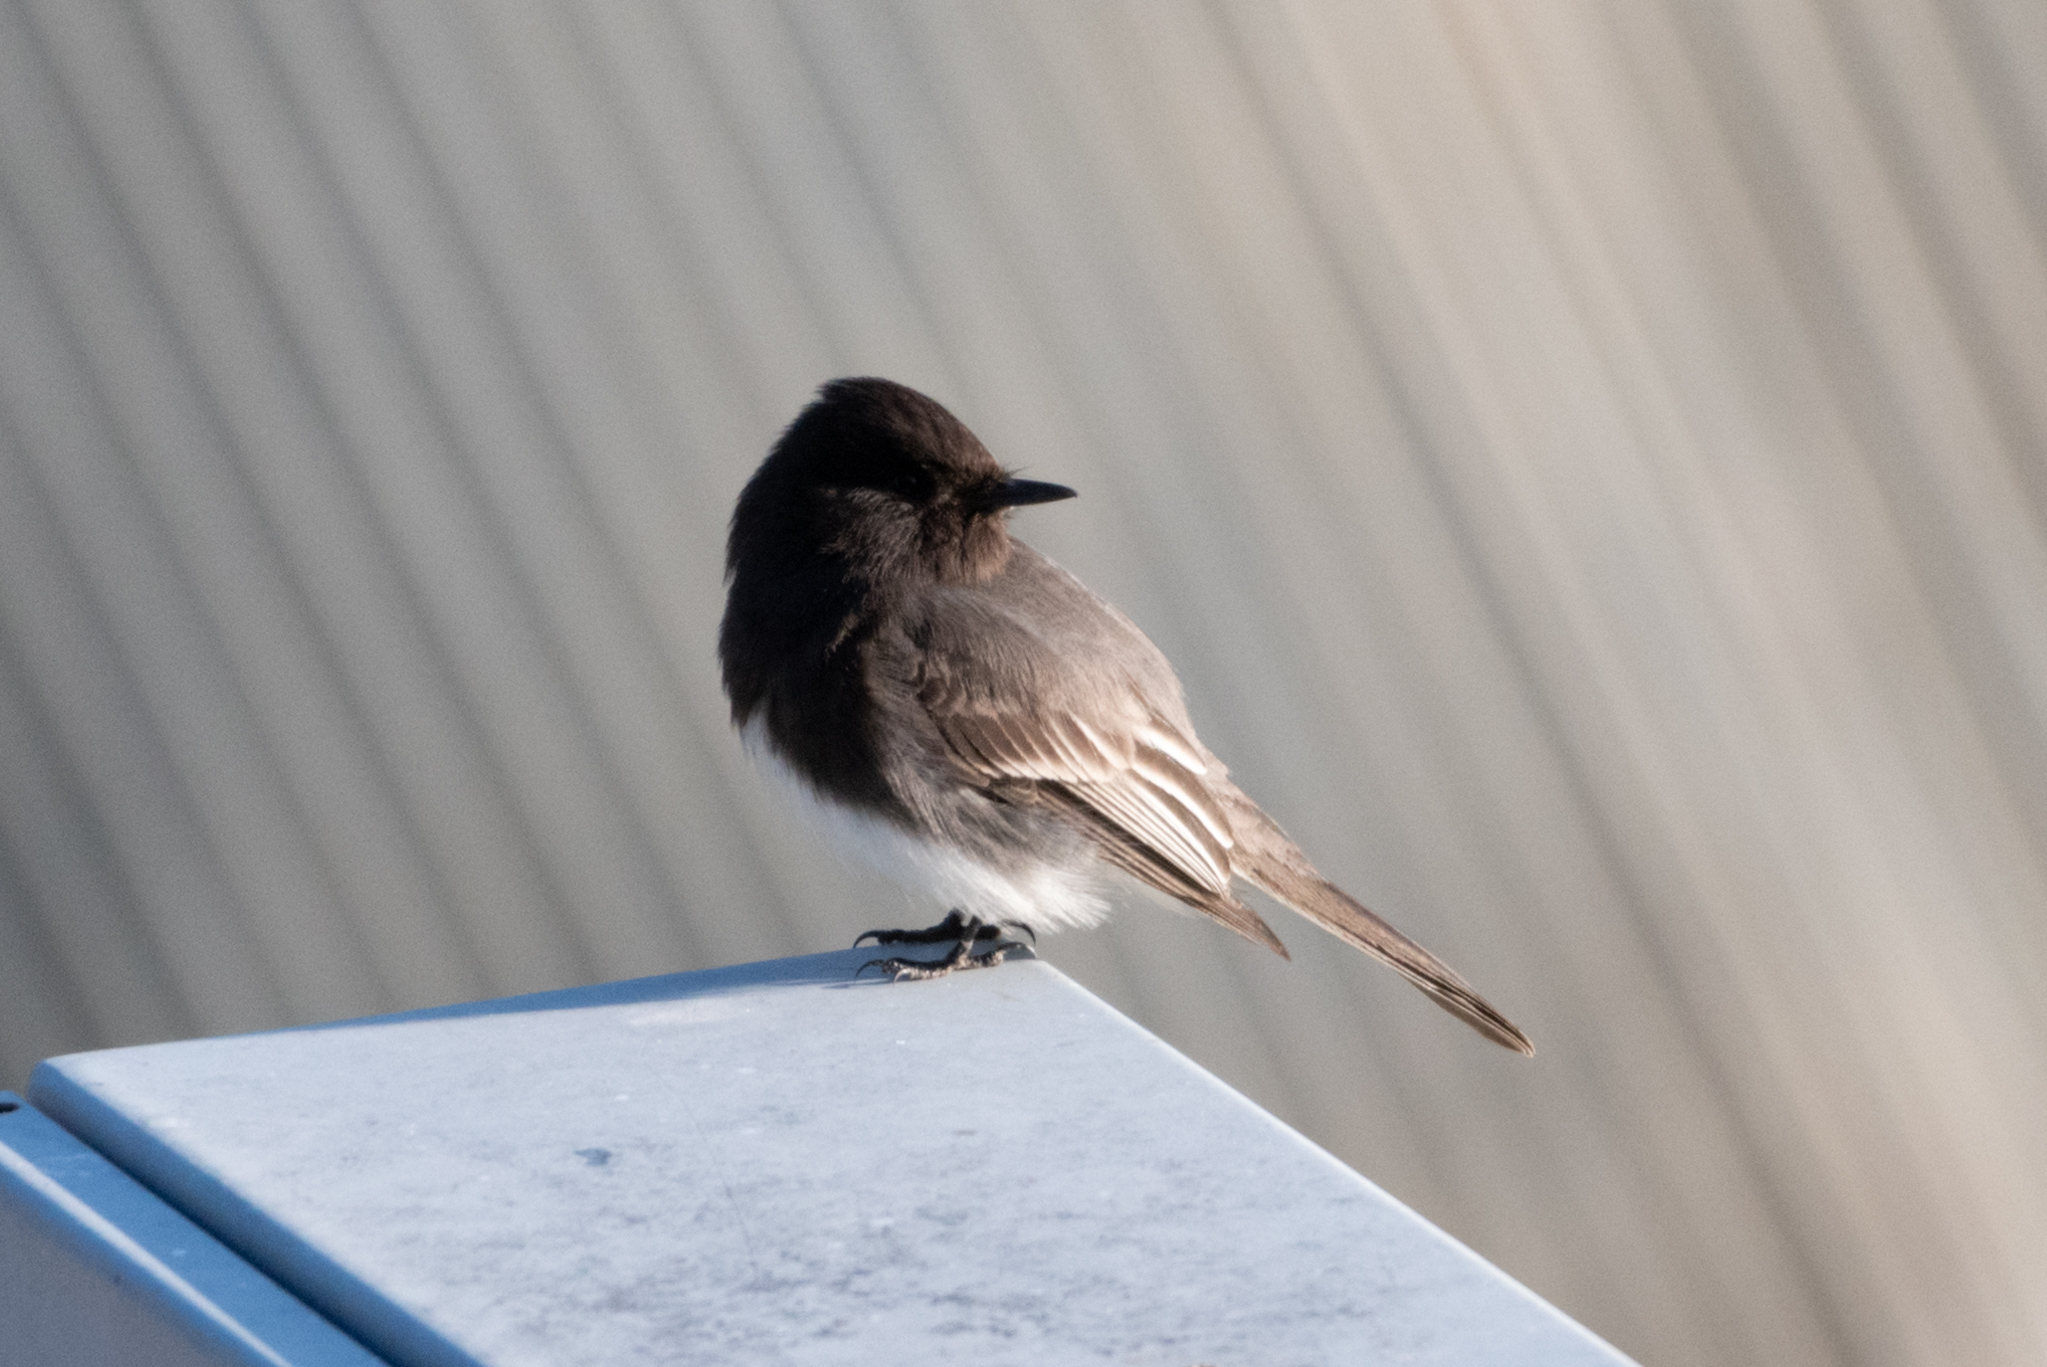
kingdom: Animalia
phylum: Chordata
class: Aves
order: Passeriformes
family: Tyrannidae
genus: Sayornis
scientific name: Sayornis nigricans
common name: Black phoebe
